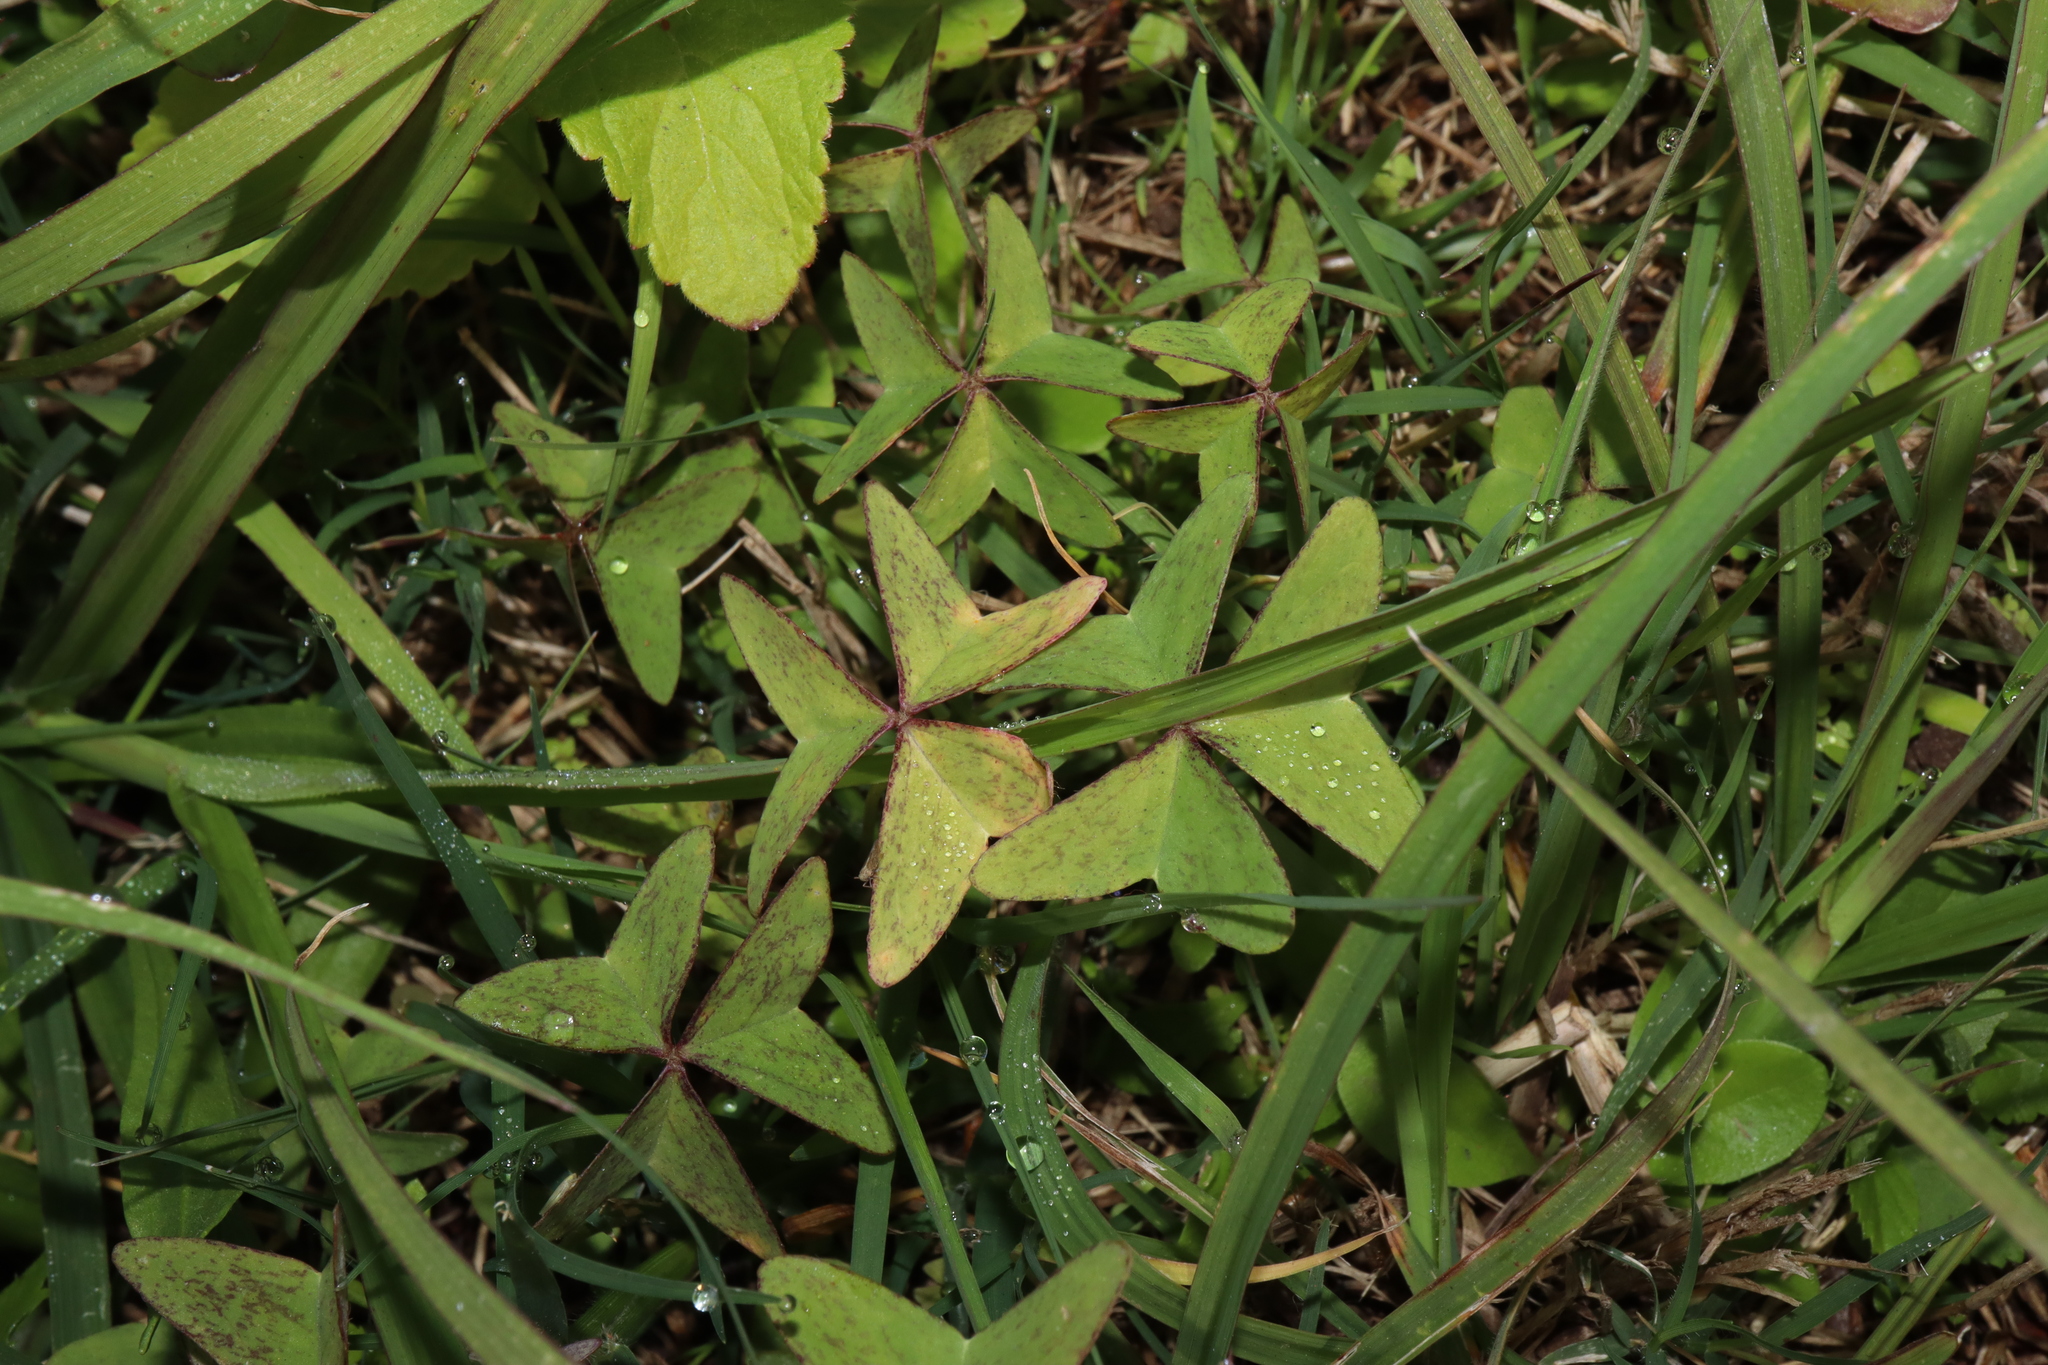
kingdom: Plantae
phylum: Tracheophyta
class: Magnoliopsida
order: Oxalidales
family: Oxalidaceae
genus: Oxalis
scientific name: Oxalis latifolia
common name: Garden pink-sorrel
